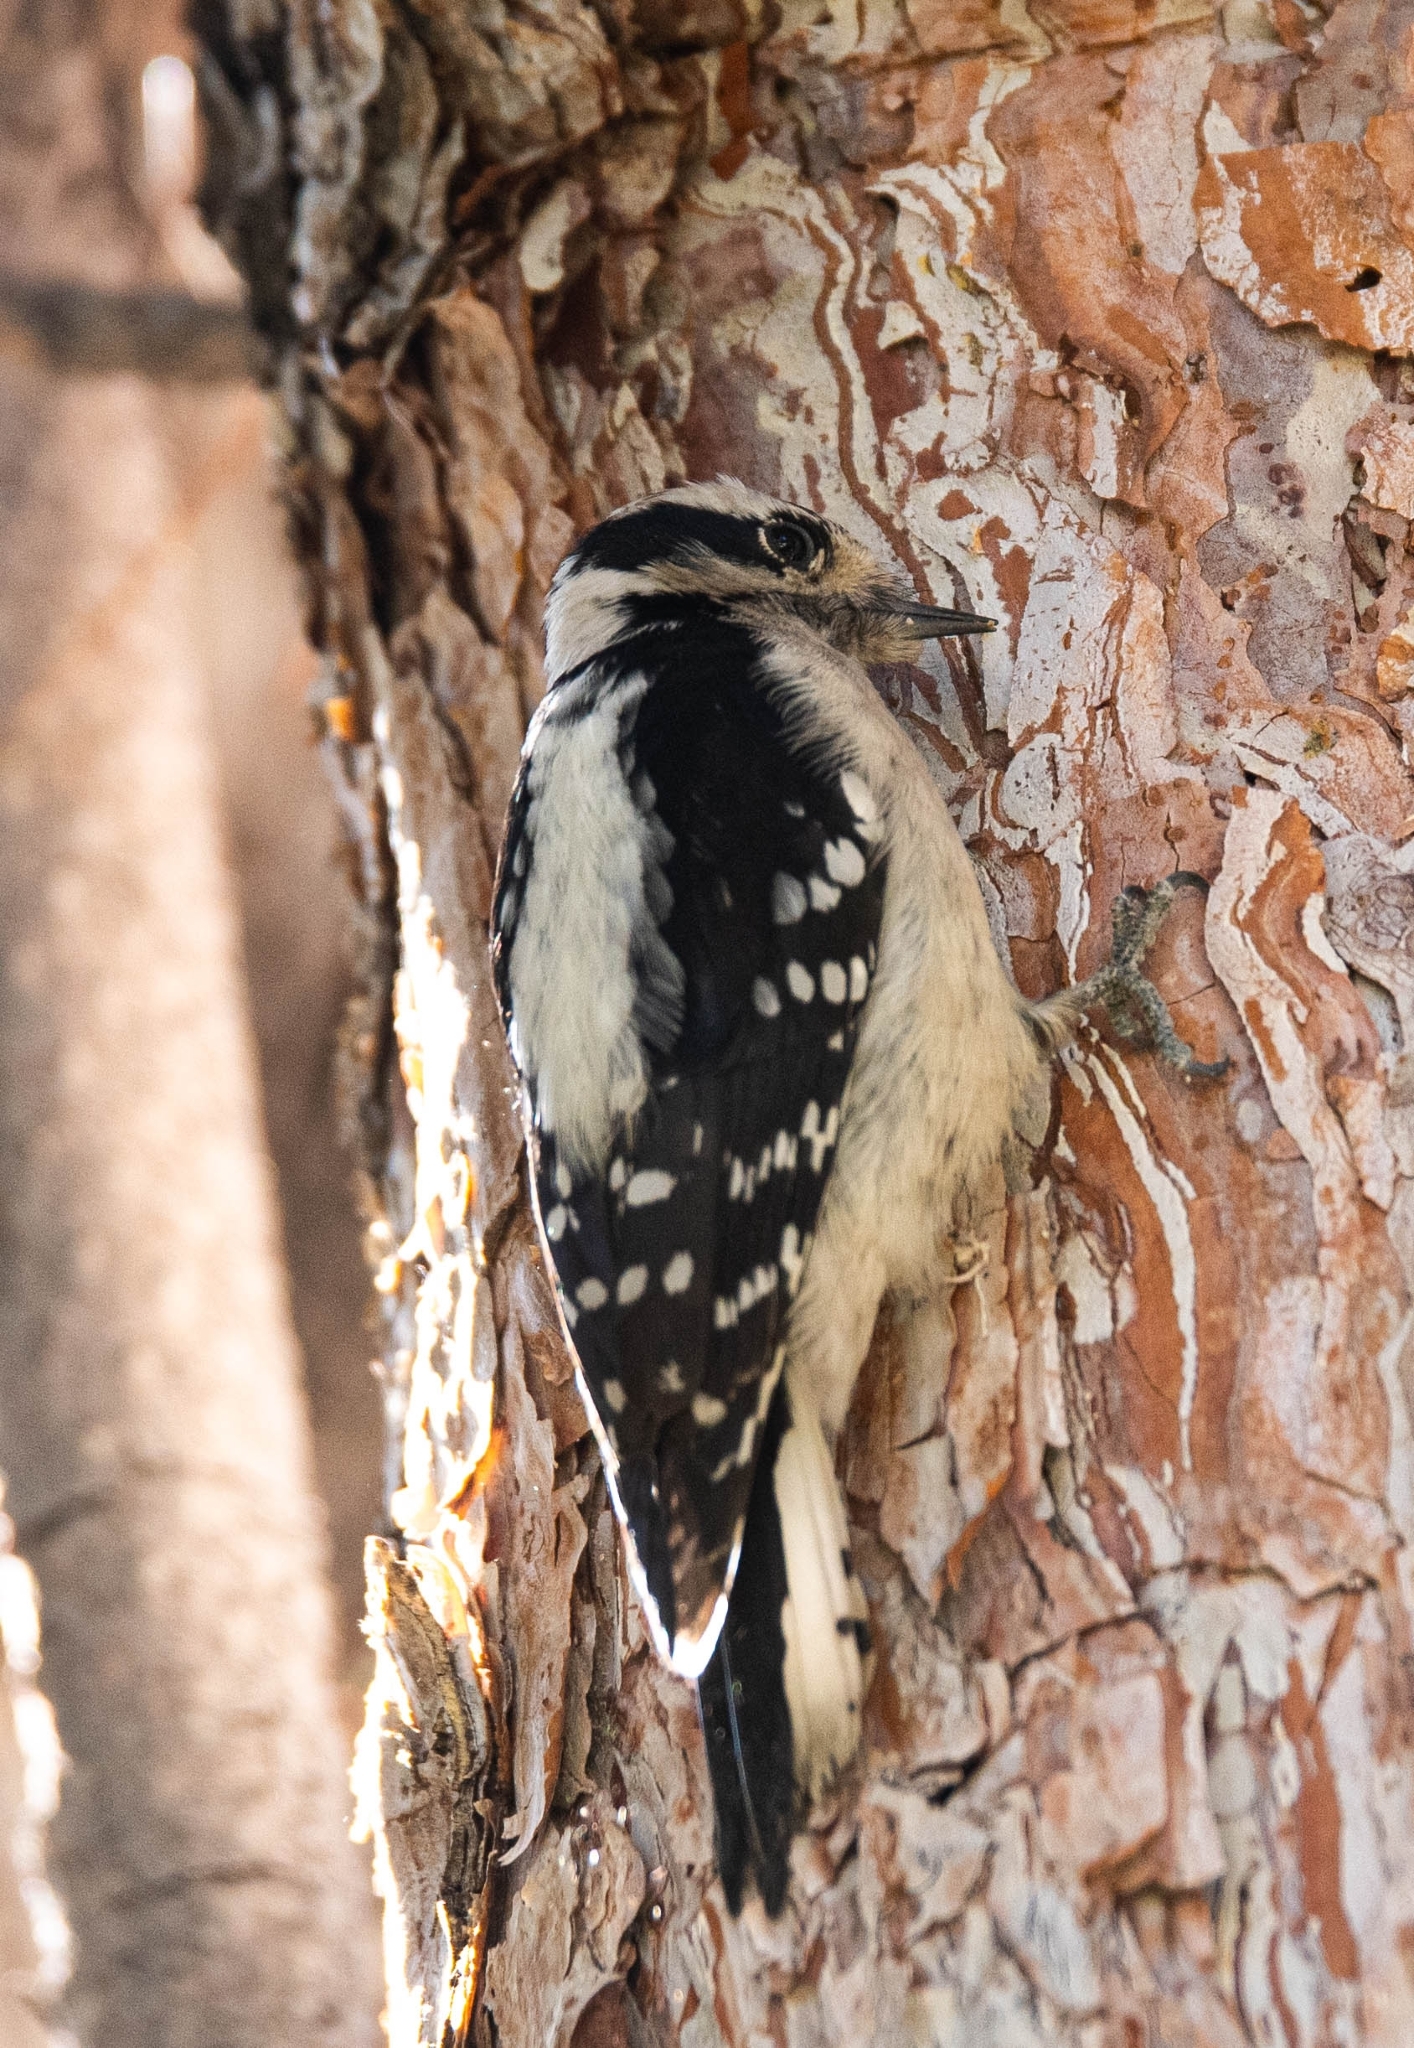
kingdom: Animalia
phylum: Chordata
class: Aves
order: Piciformes
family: Picidae
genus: Dryobates
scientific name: Dryobates pubescens
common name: Downy woodpecker
